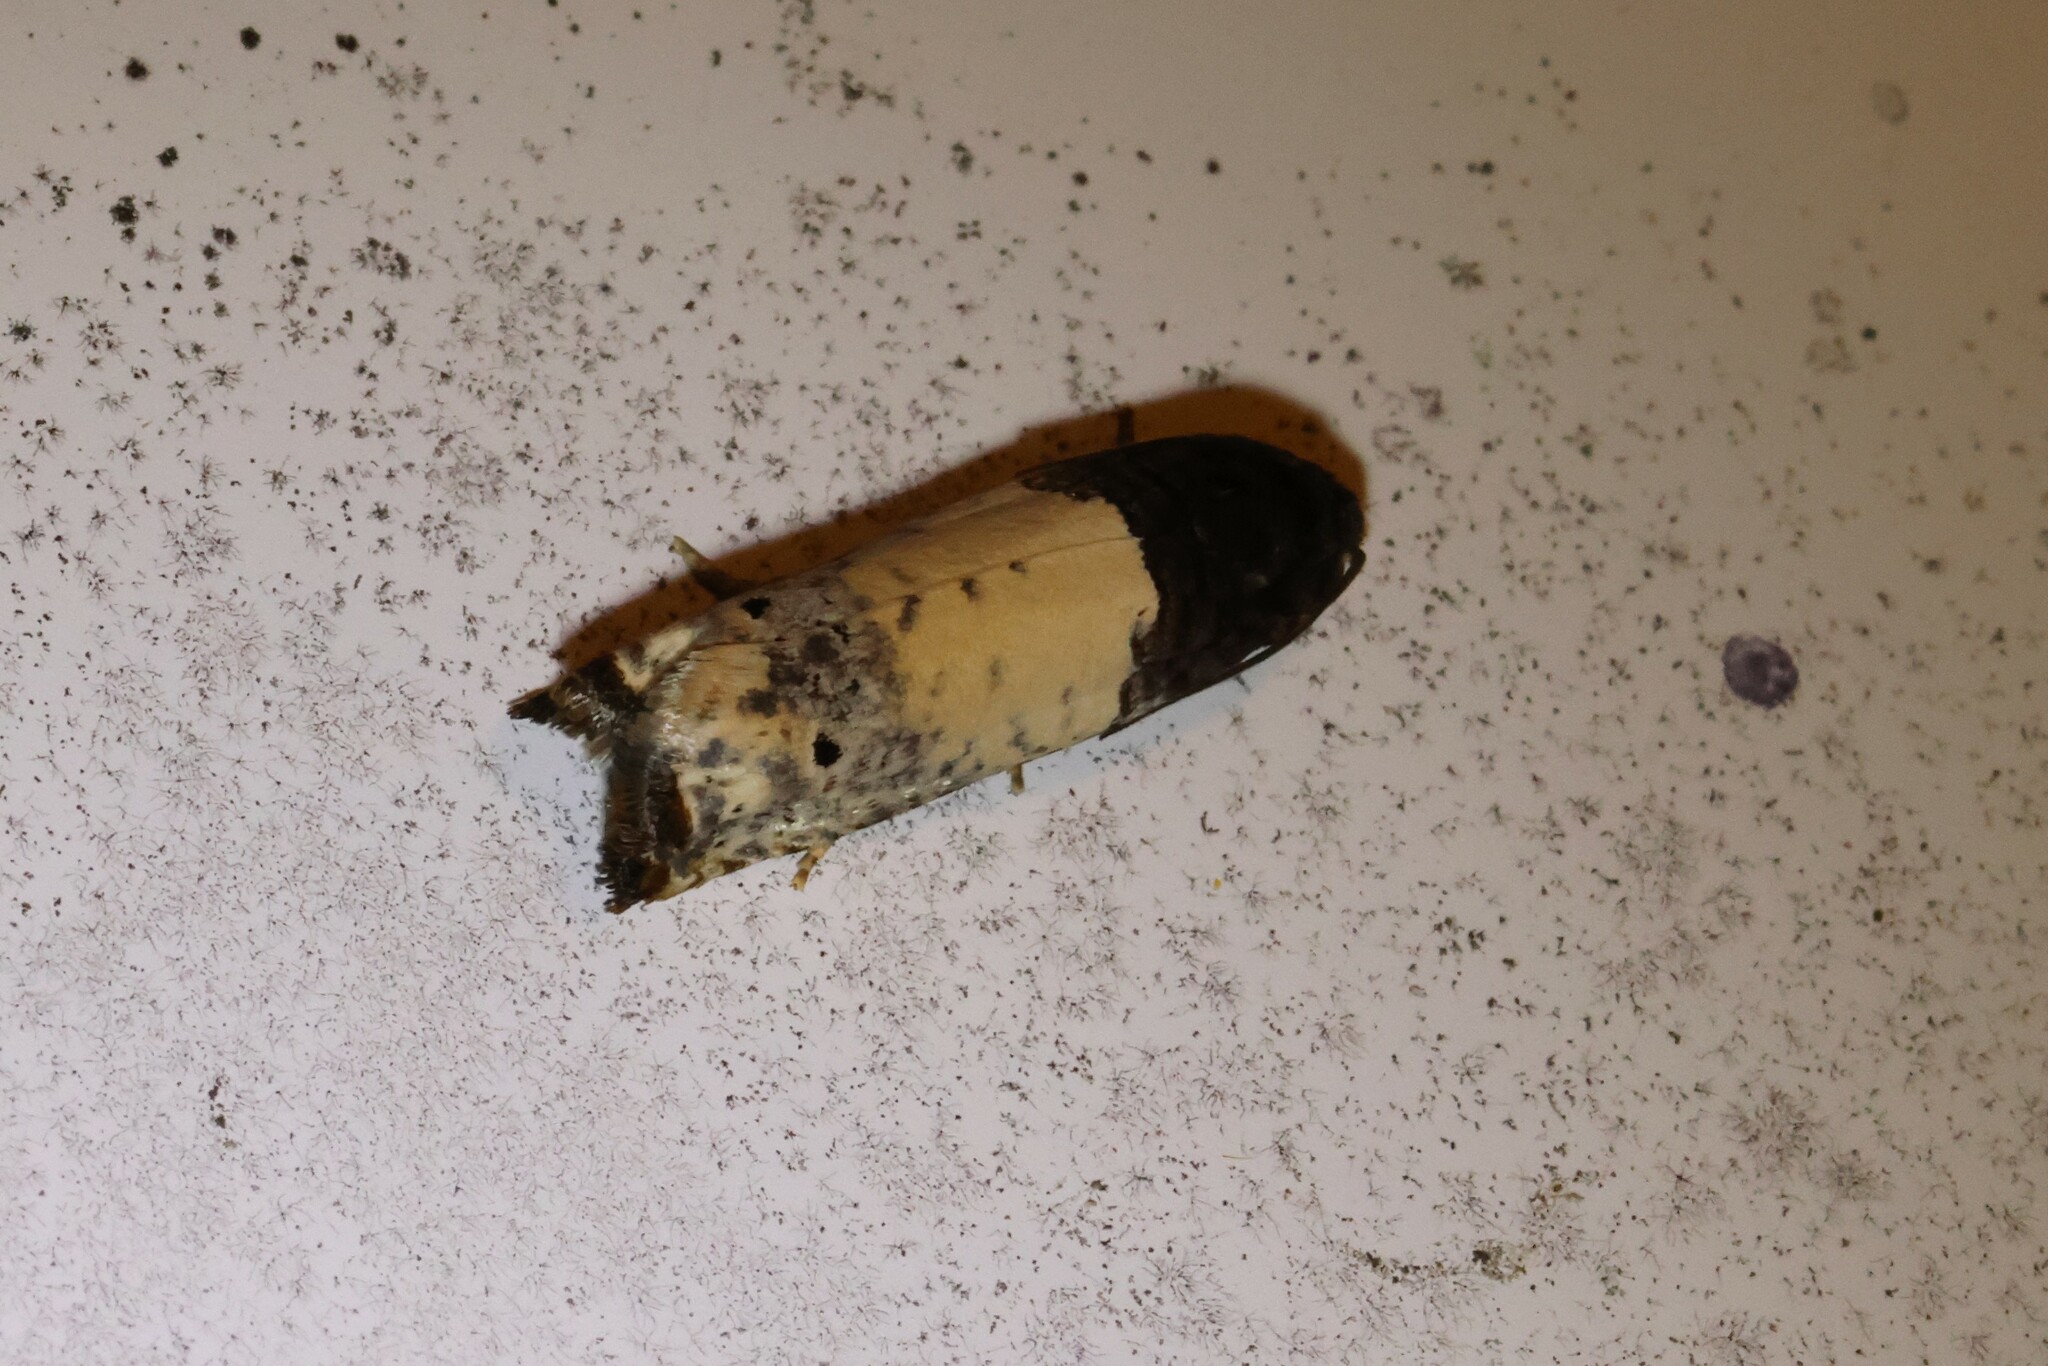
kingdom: Animalia
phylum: Arthropoda
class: Insecta
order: Lepidoptera
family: Tortricidae
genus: Epiblema
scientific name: Epiblema scudderiana
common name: Goldenrod gall moth
